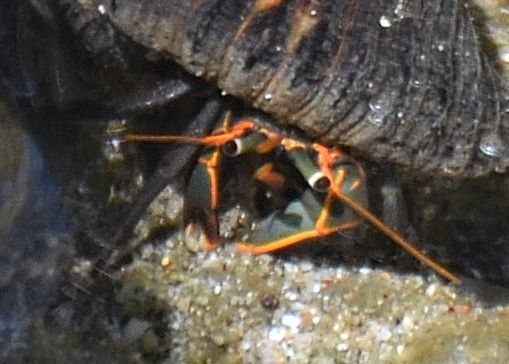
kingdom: Animalia
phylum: Arthropoda
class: Malacostraca
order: Decapoda
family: Diogenidae
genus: Calcinus
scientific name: Calcinus obscurus
